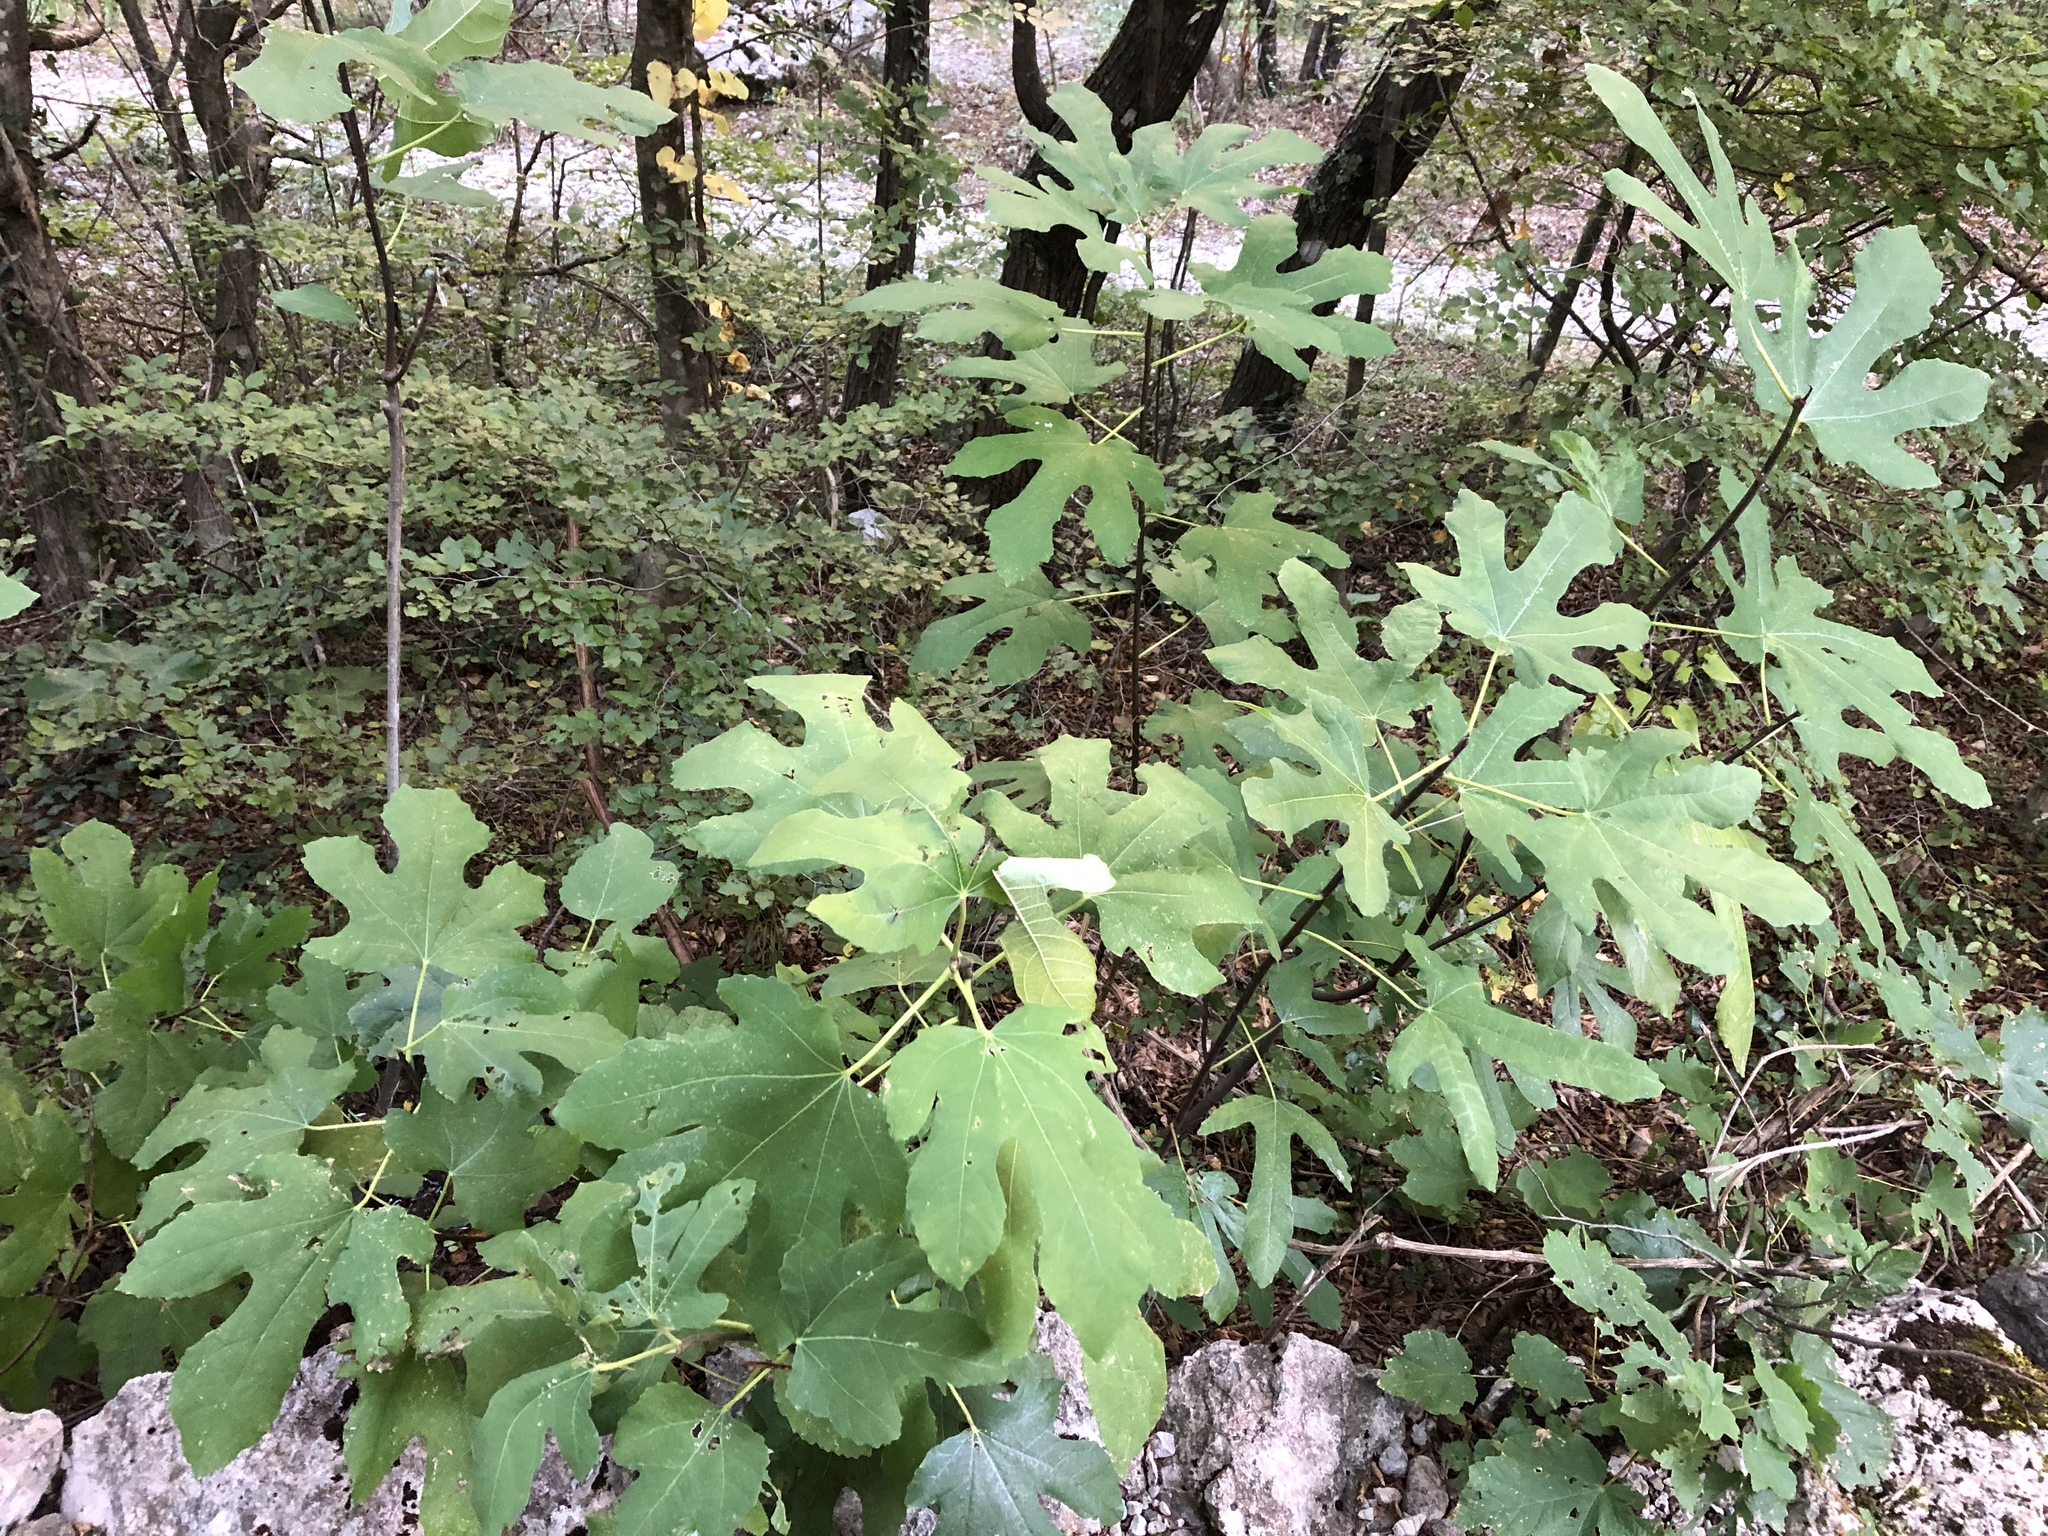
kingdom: Plantae
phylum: Tracheophyta
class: Magnoliopsida
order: Rosales
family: Moraceae
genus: Ficus
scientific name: Ficus carica
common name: Fig
